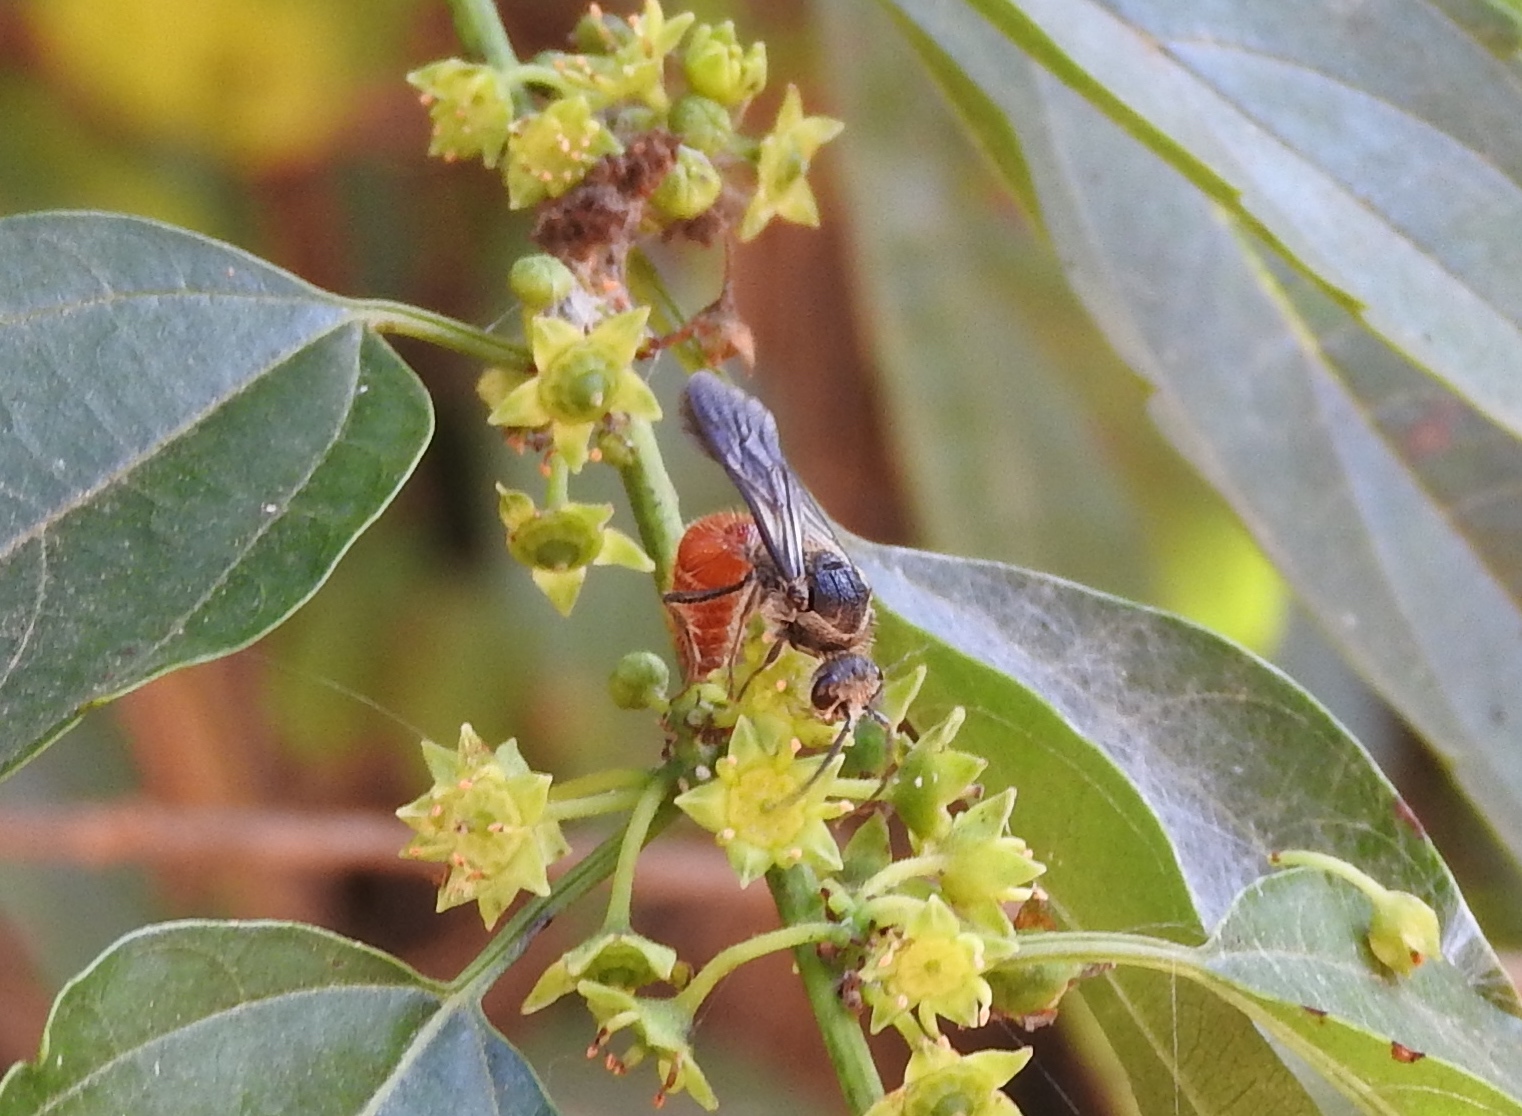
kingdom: Animalia
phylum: Arthropoda
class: Insecta
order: Hymenoptera
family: Mutillidae
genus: Timulla
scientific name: Timulla
